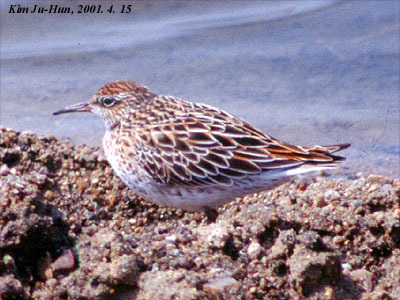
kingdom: Animalia
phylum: Chordata
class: Aves
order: Charadriiformes
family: Scolopacidae
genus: Calidris
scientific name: Calidris acuminata
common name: Sharp-tailed sandpiper
